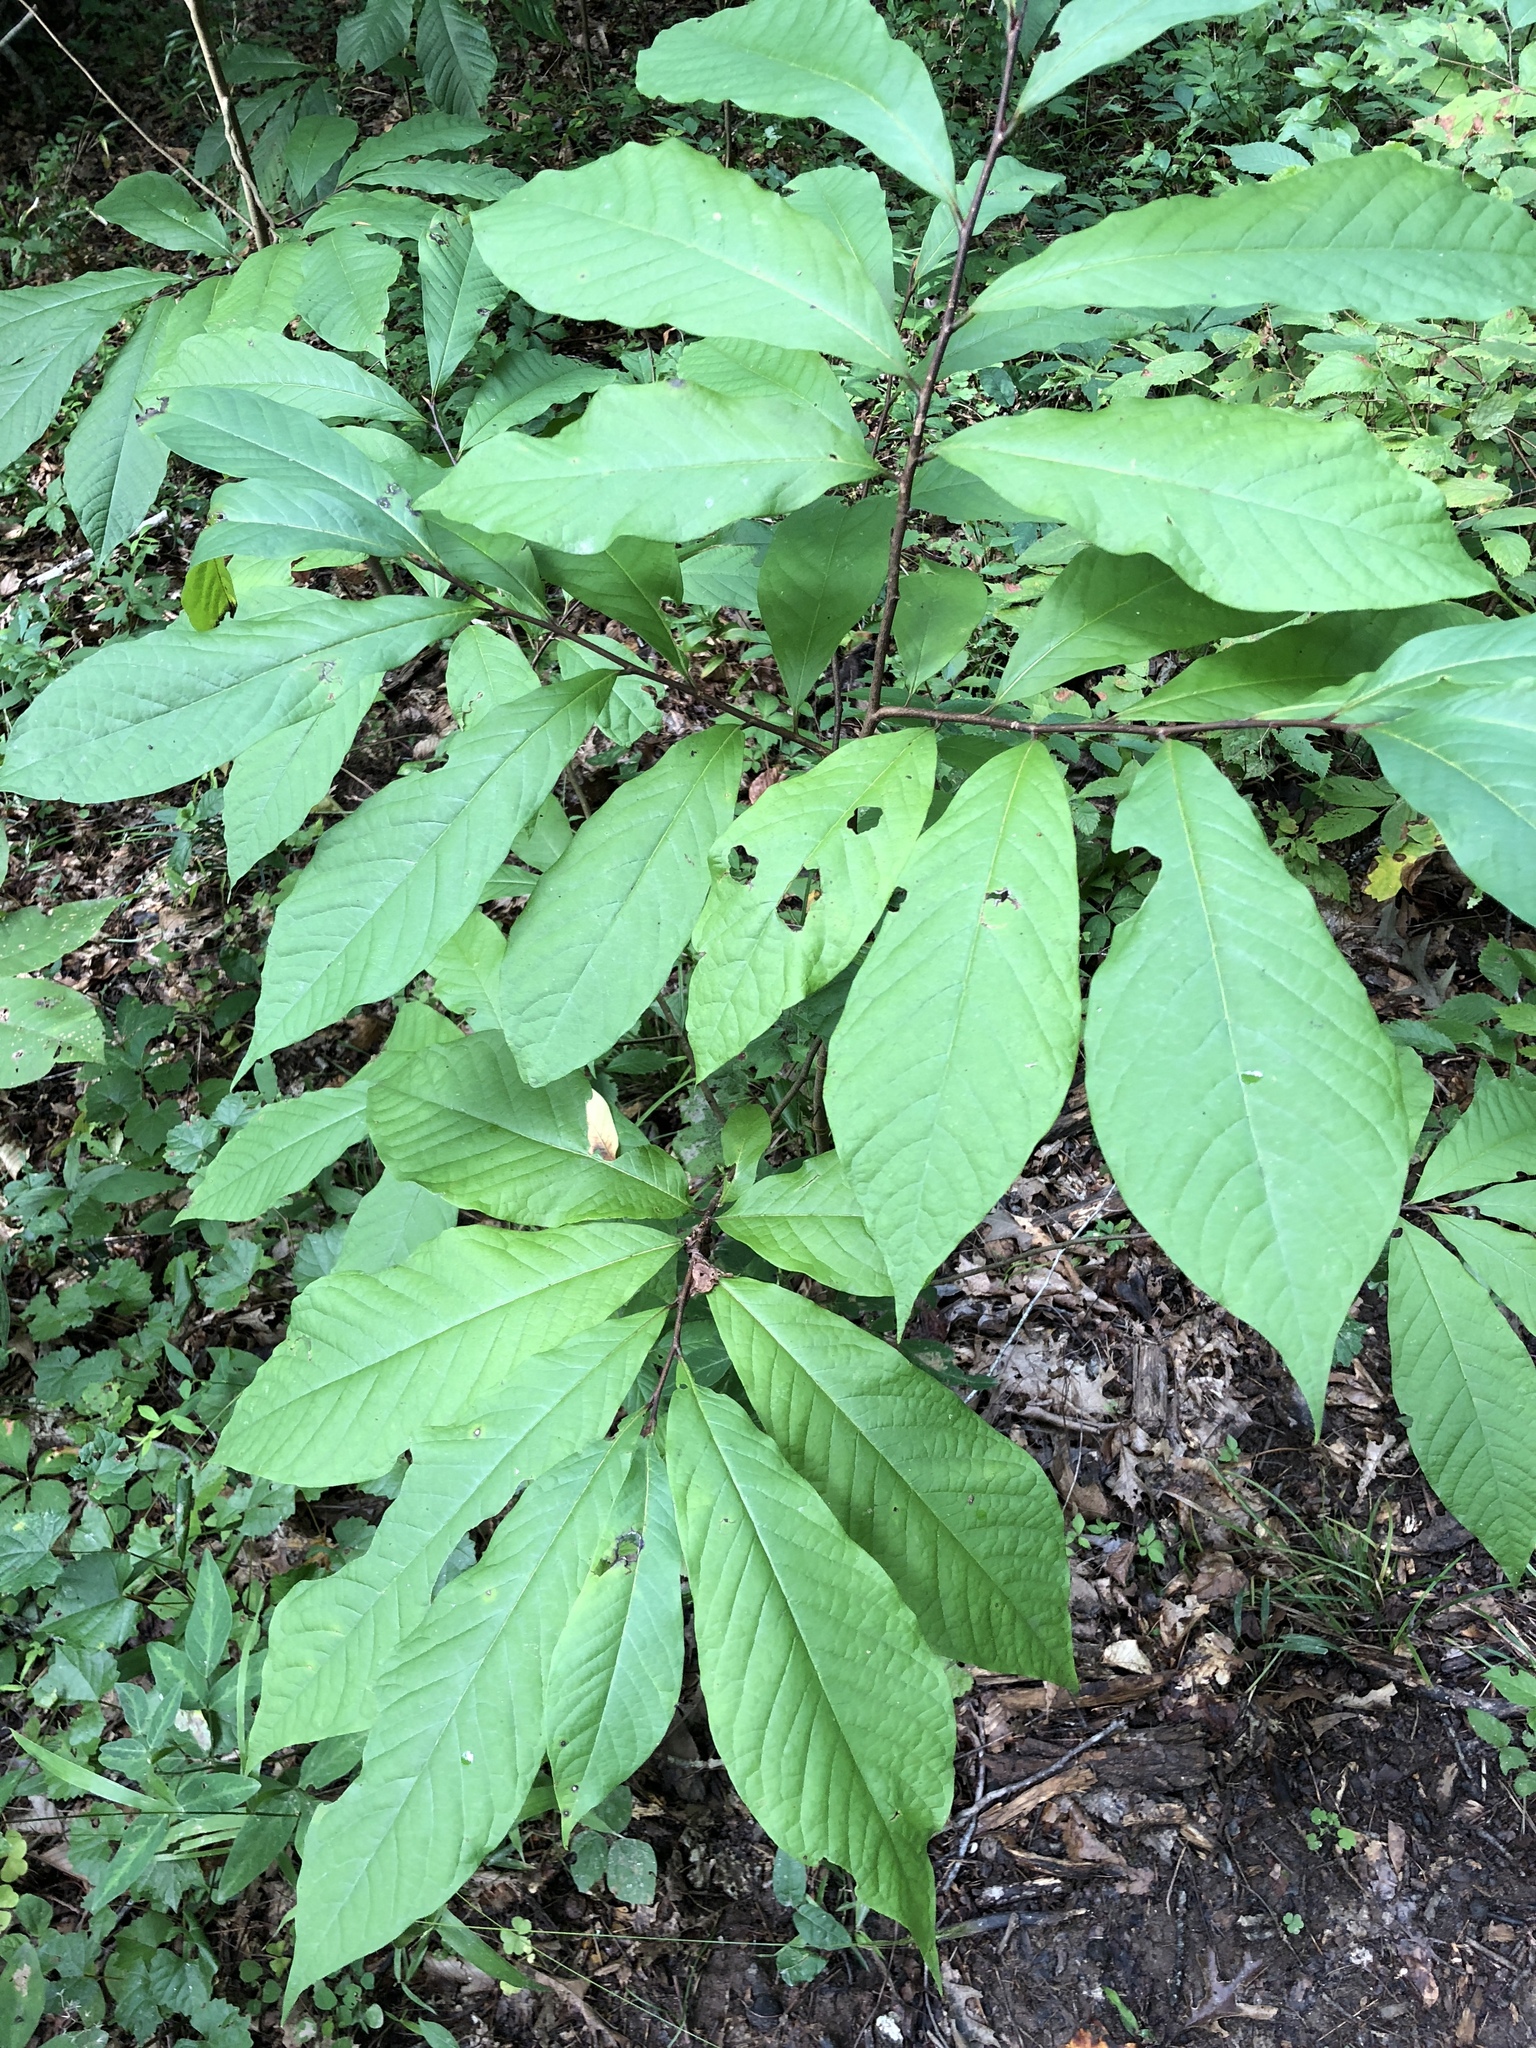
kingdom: Plantae
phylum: Tracheophyta
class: Magnoliopsida
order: Magnoliales
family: Annonaceae
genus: Asimina
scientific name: Asimina triloba
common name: Dog-banana
